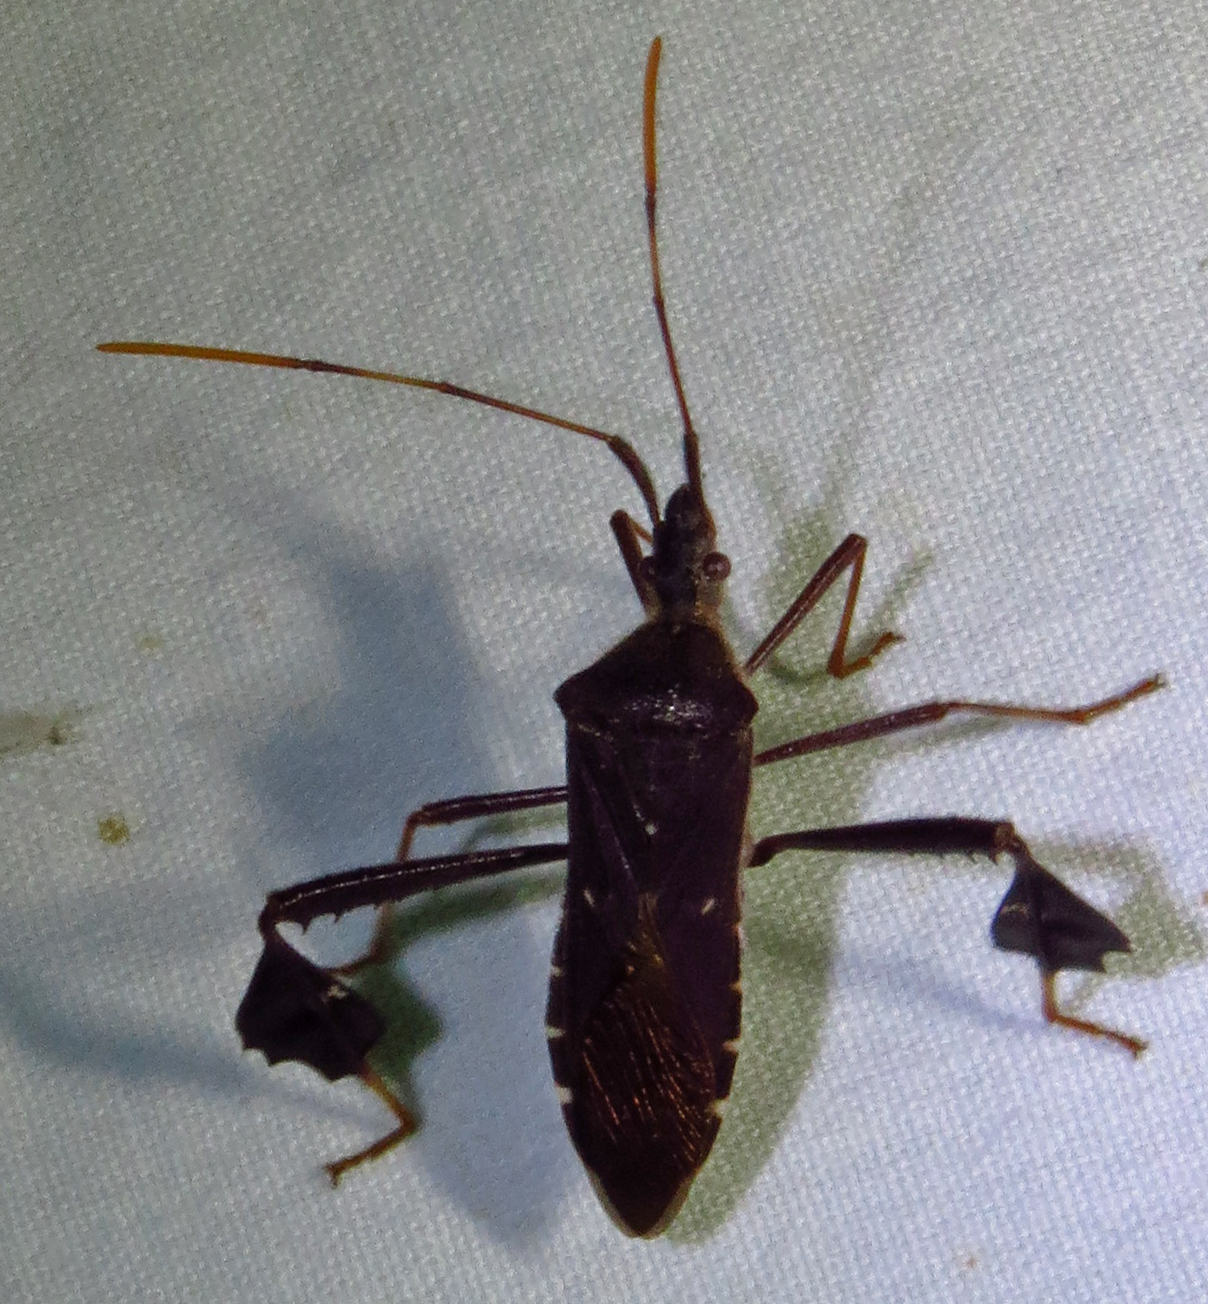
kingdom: Animalia
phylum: Arthropoda
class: Insecta
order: Hemiptera
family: Coreidae
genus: Leptoglossus
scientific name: Leptoglossus oppositus
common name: Northern leaf-footed bug
